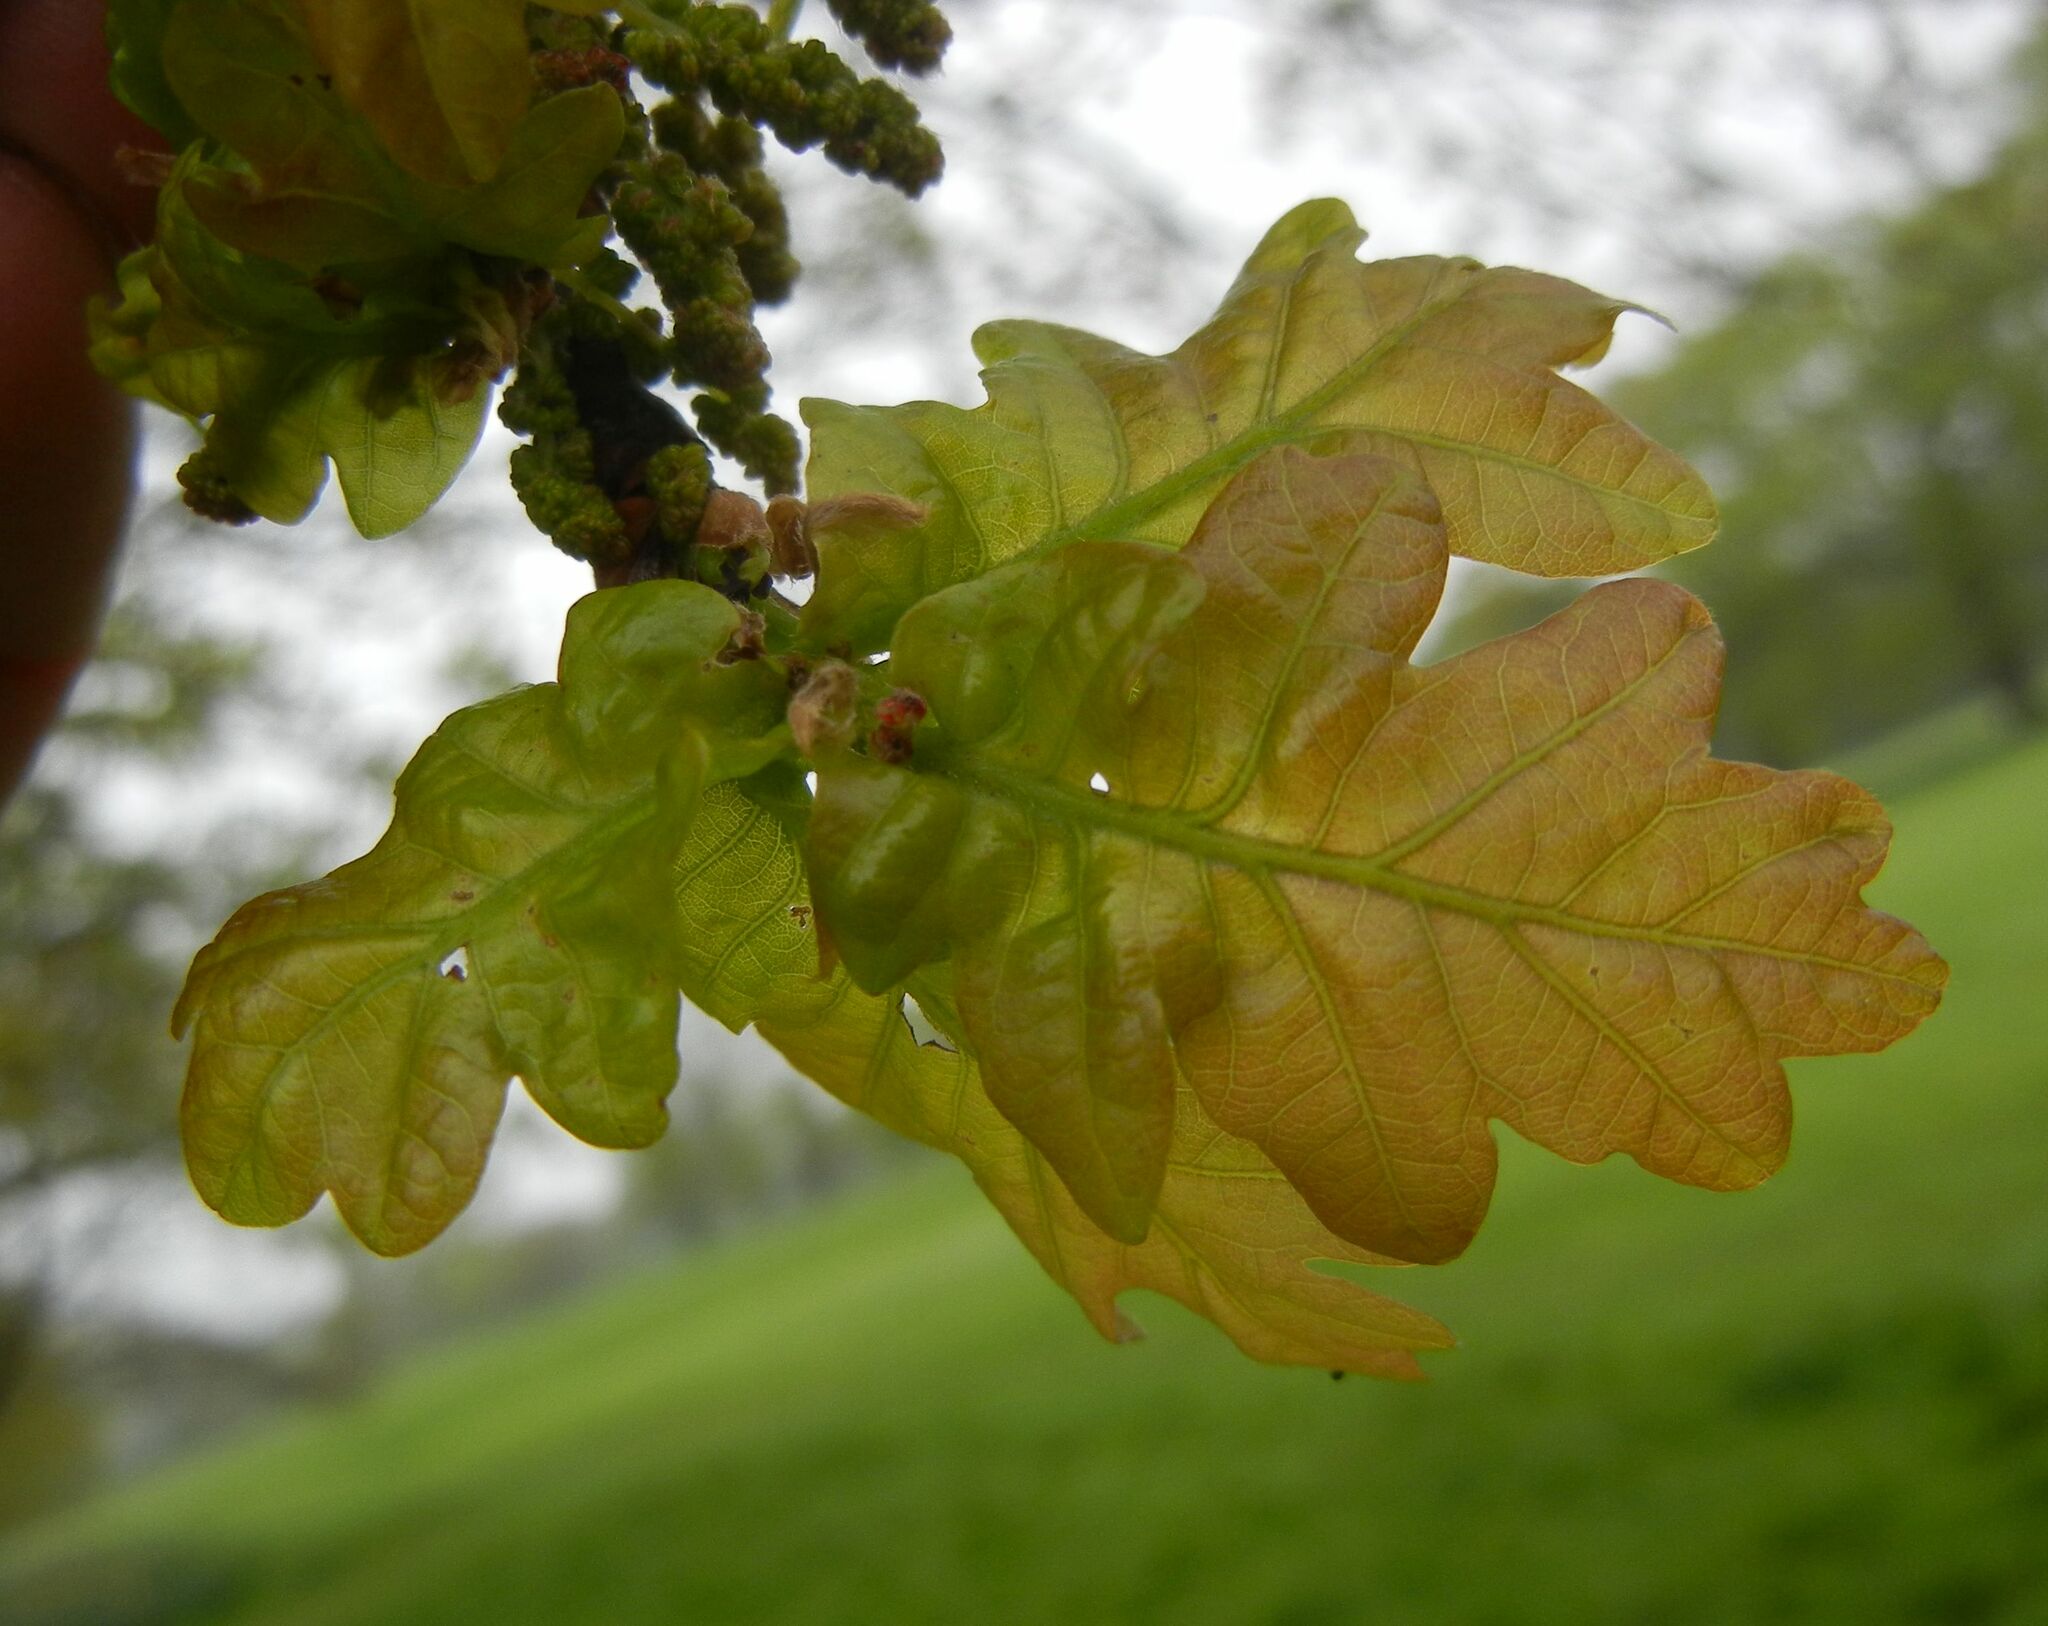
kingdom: Plantae
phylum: Tracheophyta
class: Magnoliopsida
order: Fagales
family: Fagaceae
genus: Quercus
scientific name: Quercus robur
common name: Pedunculate oak
